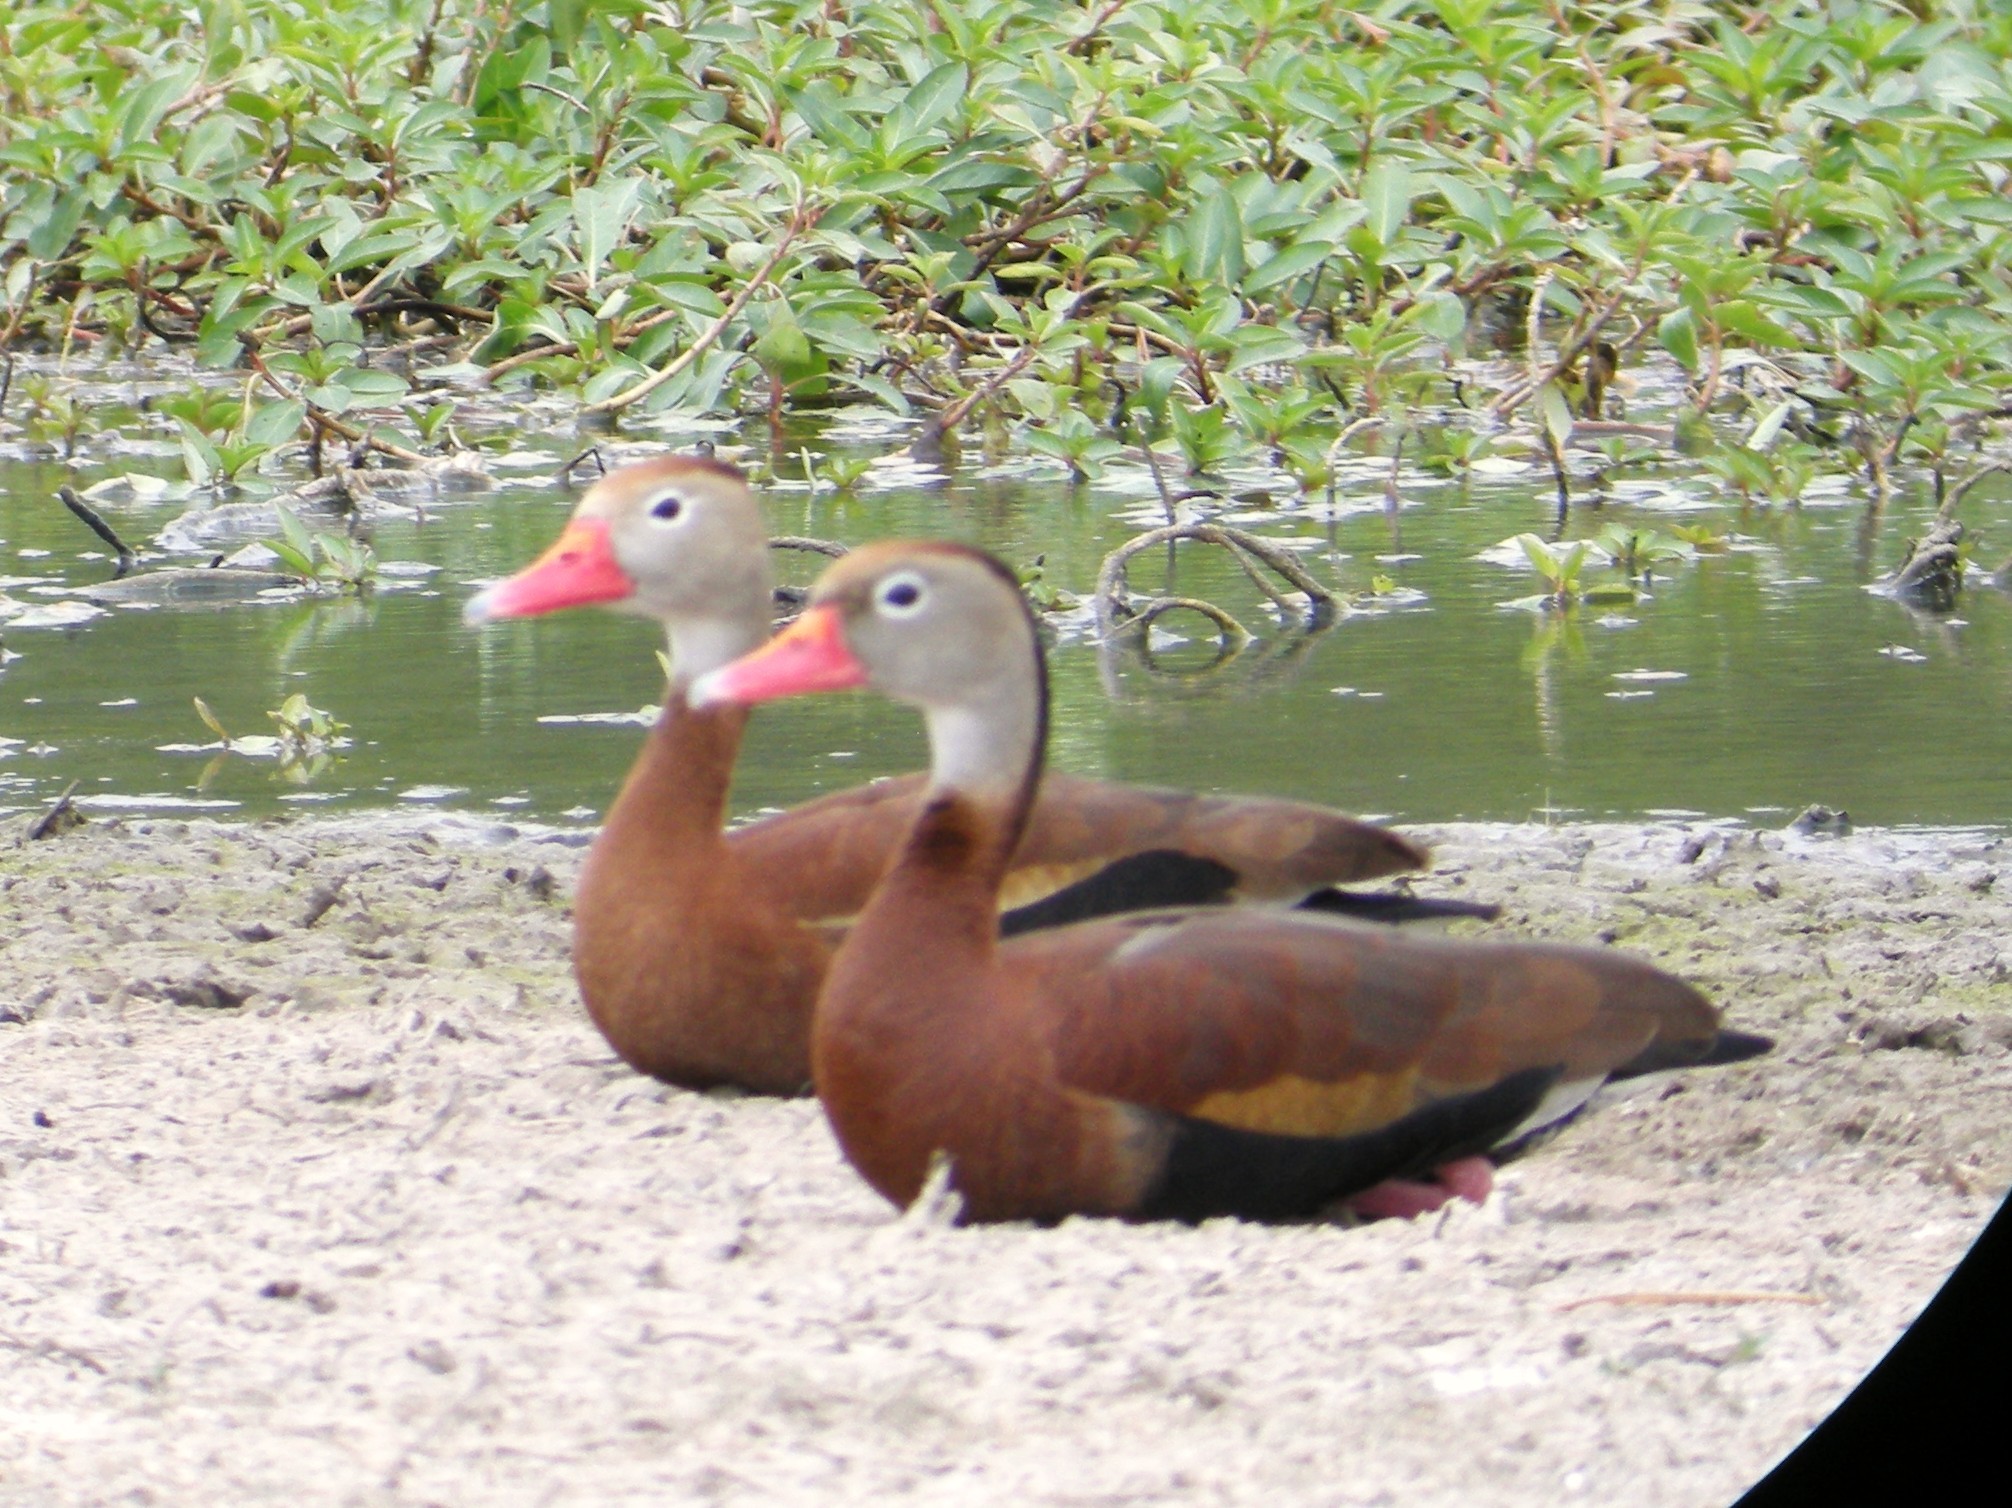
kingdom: Animalia
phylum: Chordata
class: Aves
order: Anseriformes
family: Anatidae
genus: Dendrocygna
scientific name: Dendrocygna autumnalis
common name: Black-bellied whistling duck
